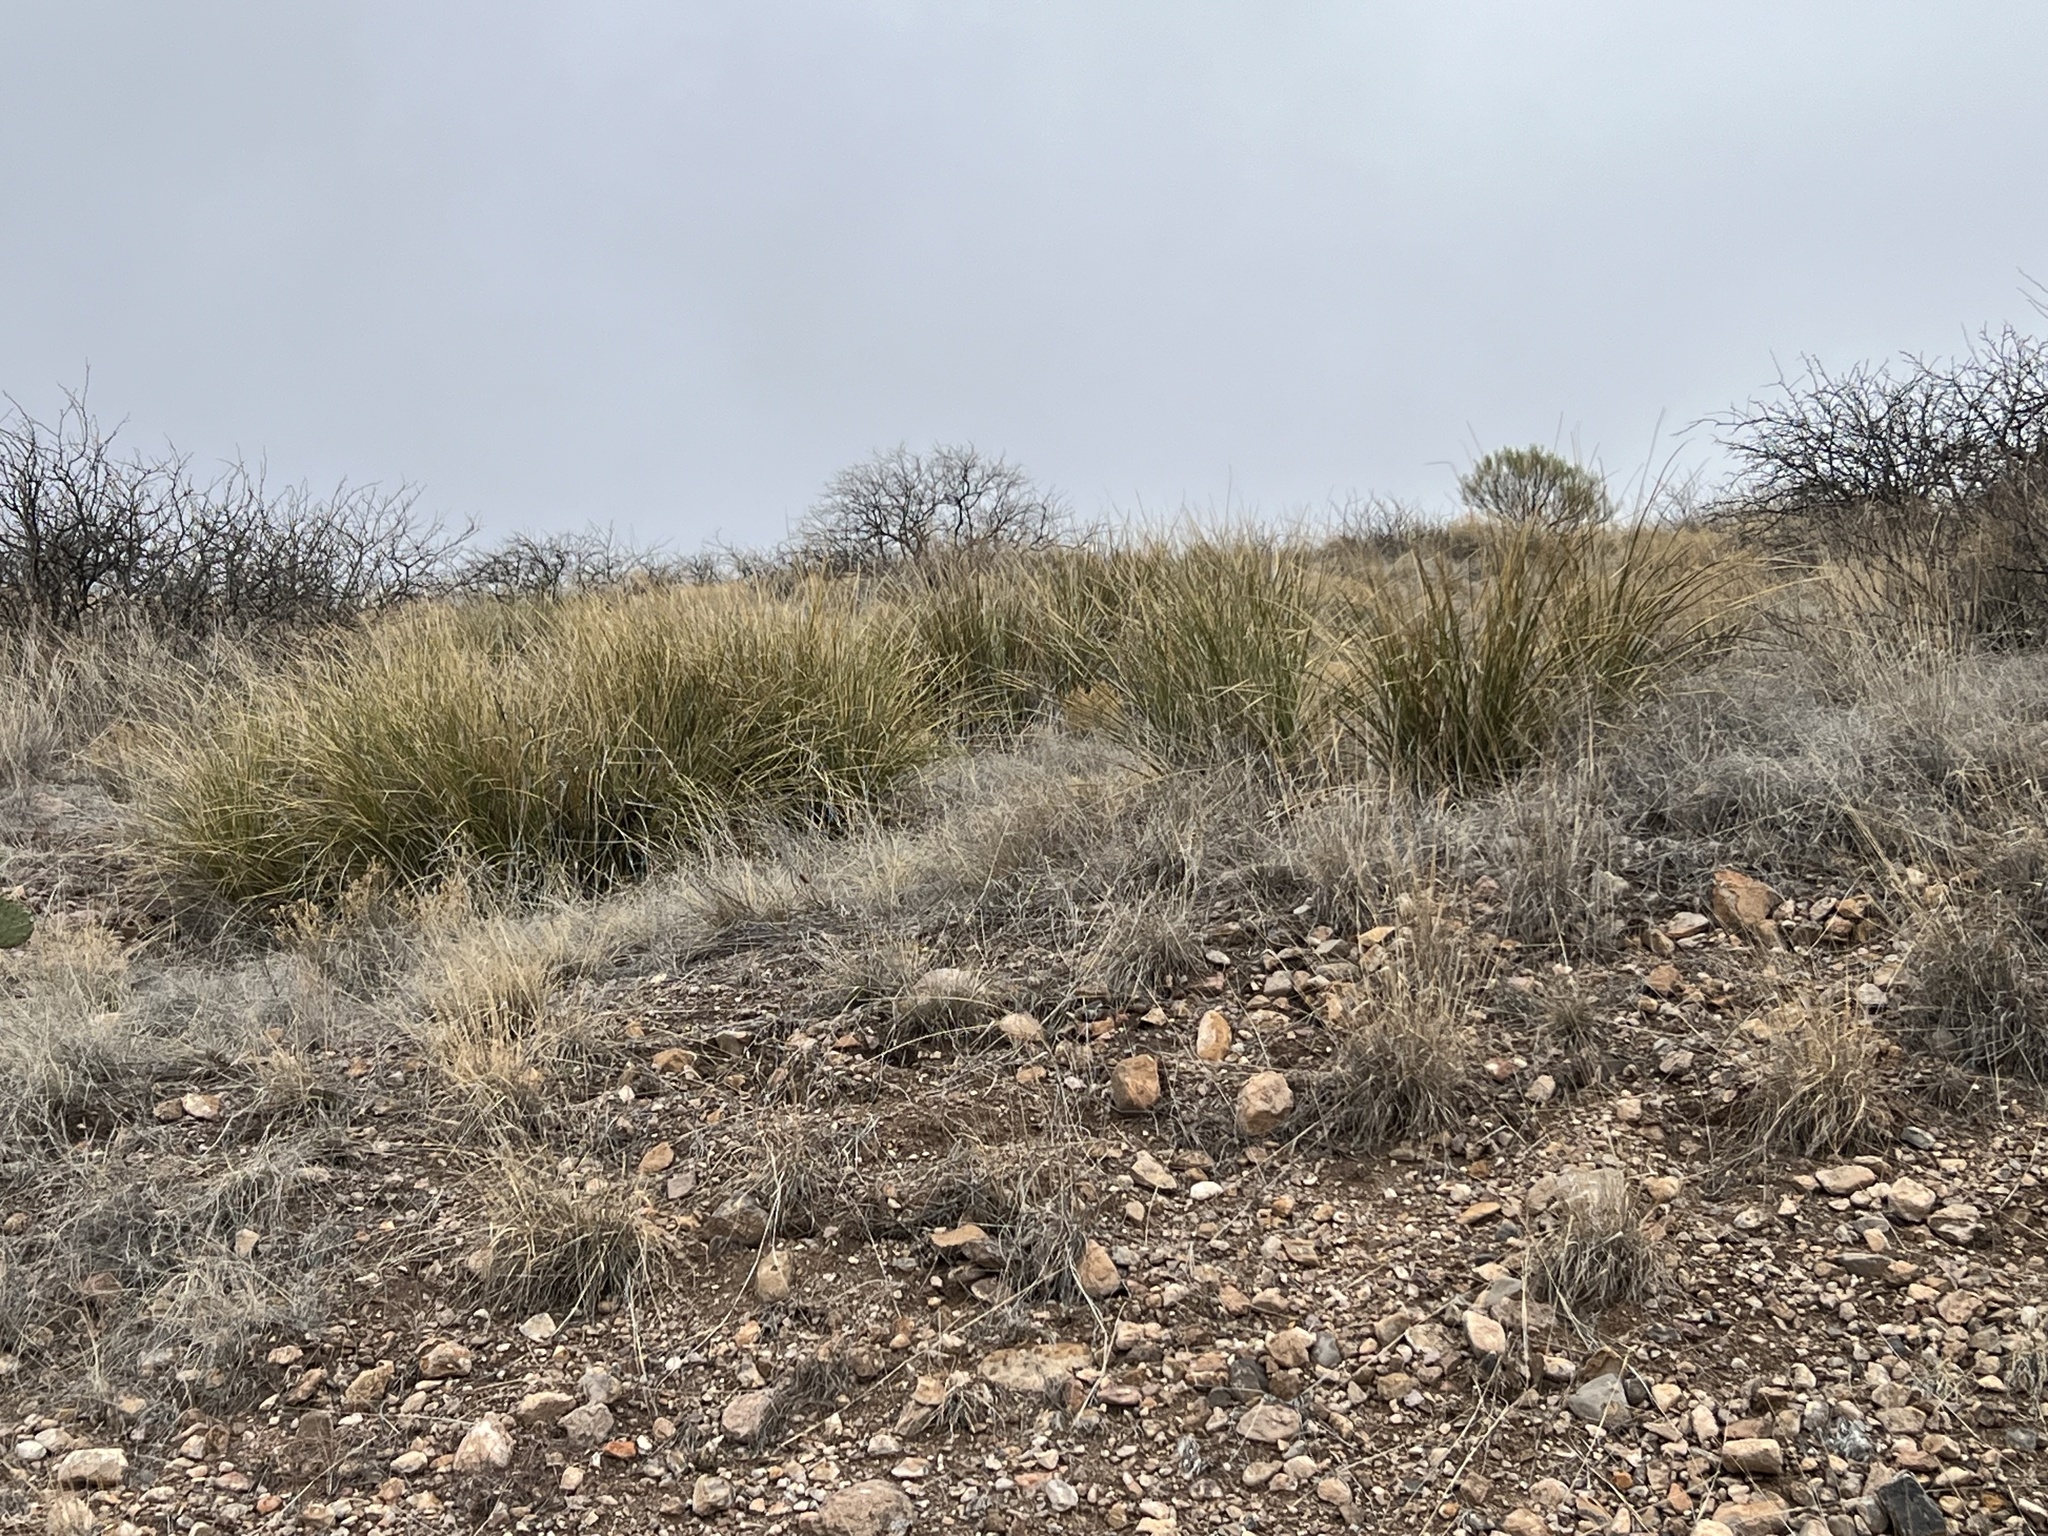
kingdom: Plantae
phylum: Tracheophyta
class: Liliopsida
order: Asparagales
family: Asparagaceae
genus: Nolina
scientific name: Nolina microcarpa
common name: Bear-grass
